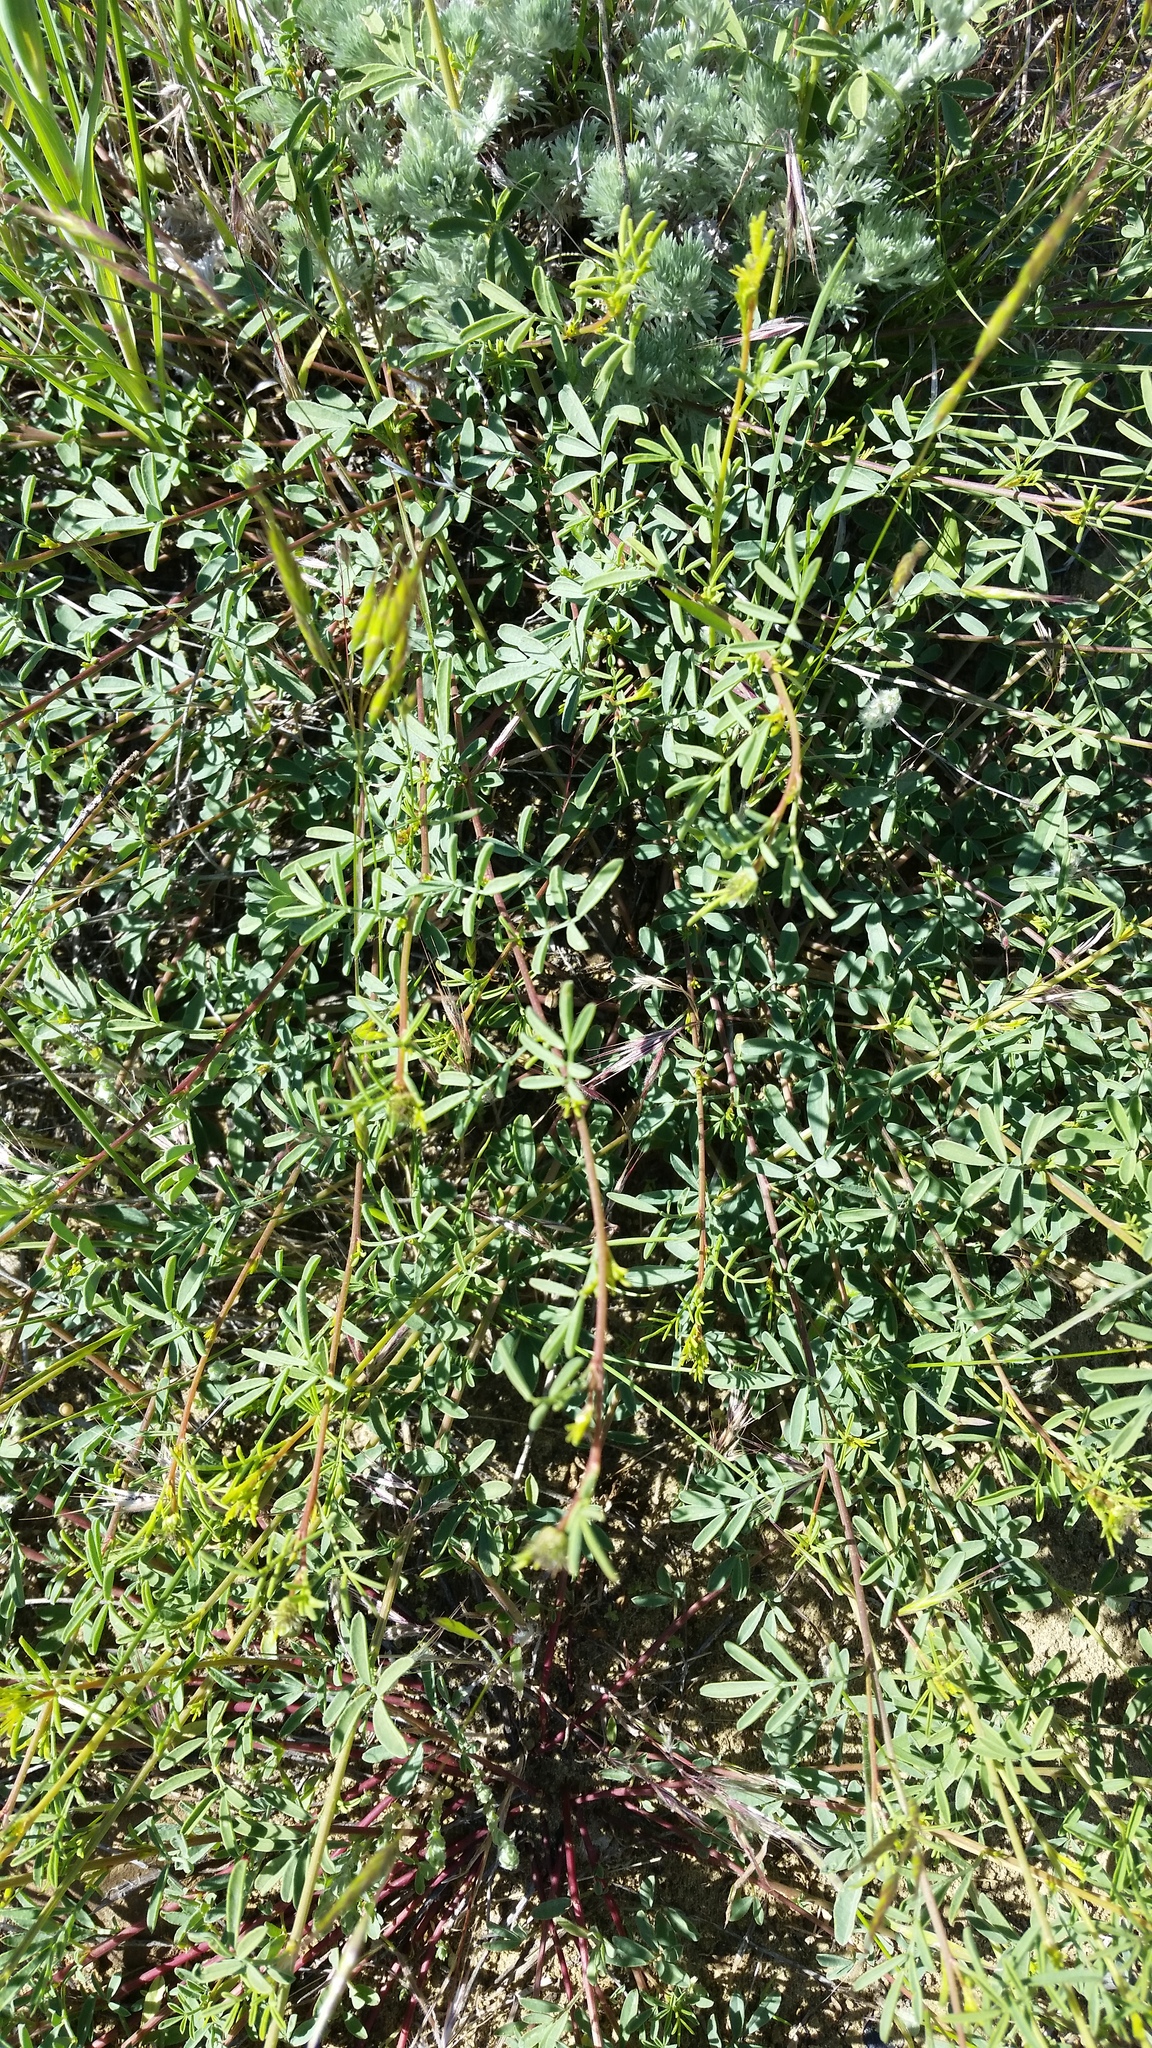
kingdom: Plantae
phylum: Tracheophyta
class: Magnoliopsida
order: Fabales
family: Fabaceae
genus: Dalea
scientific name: Dalea candida
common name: White prairie-clover
